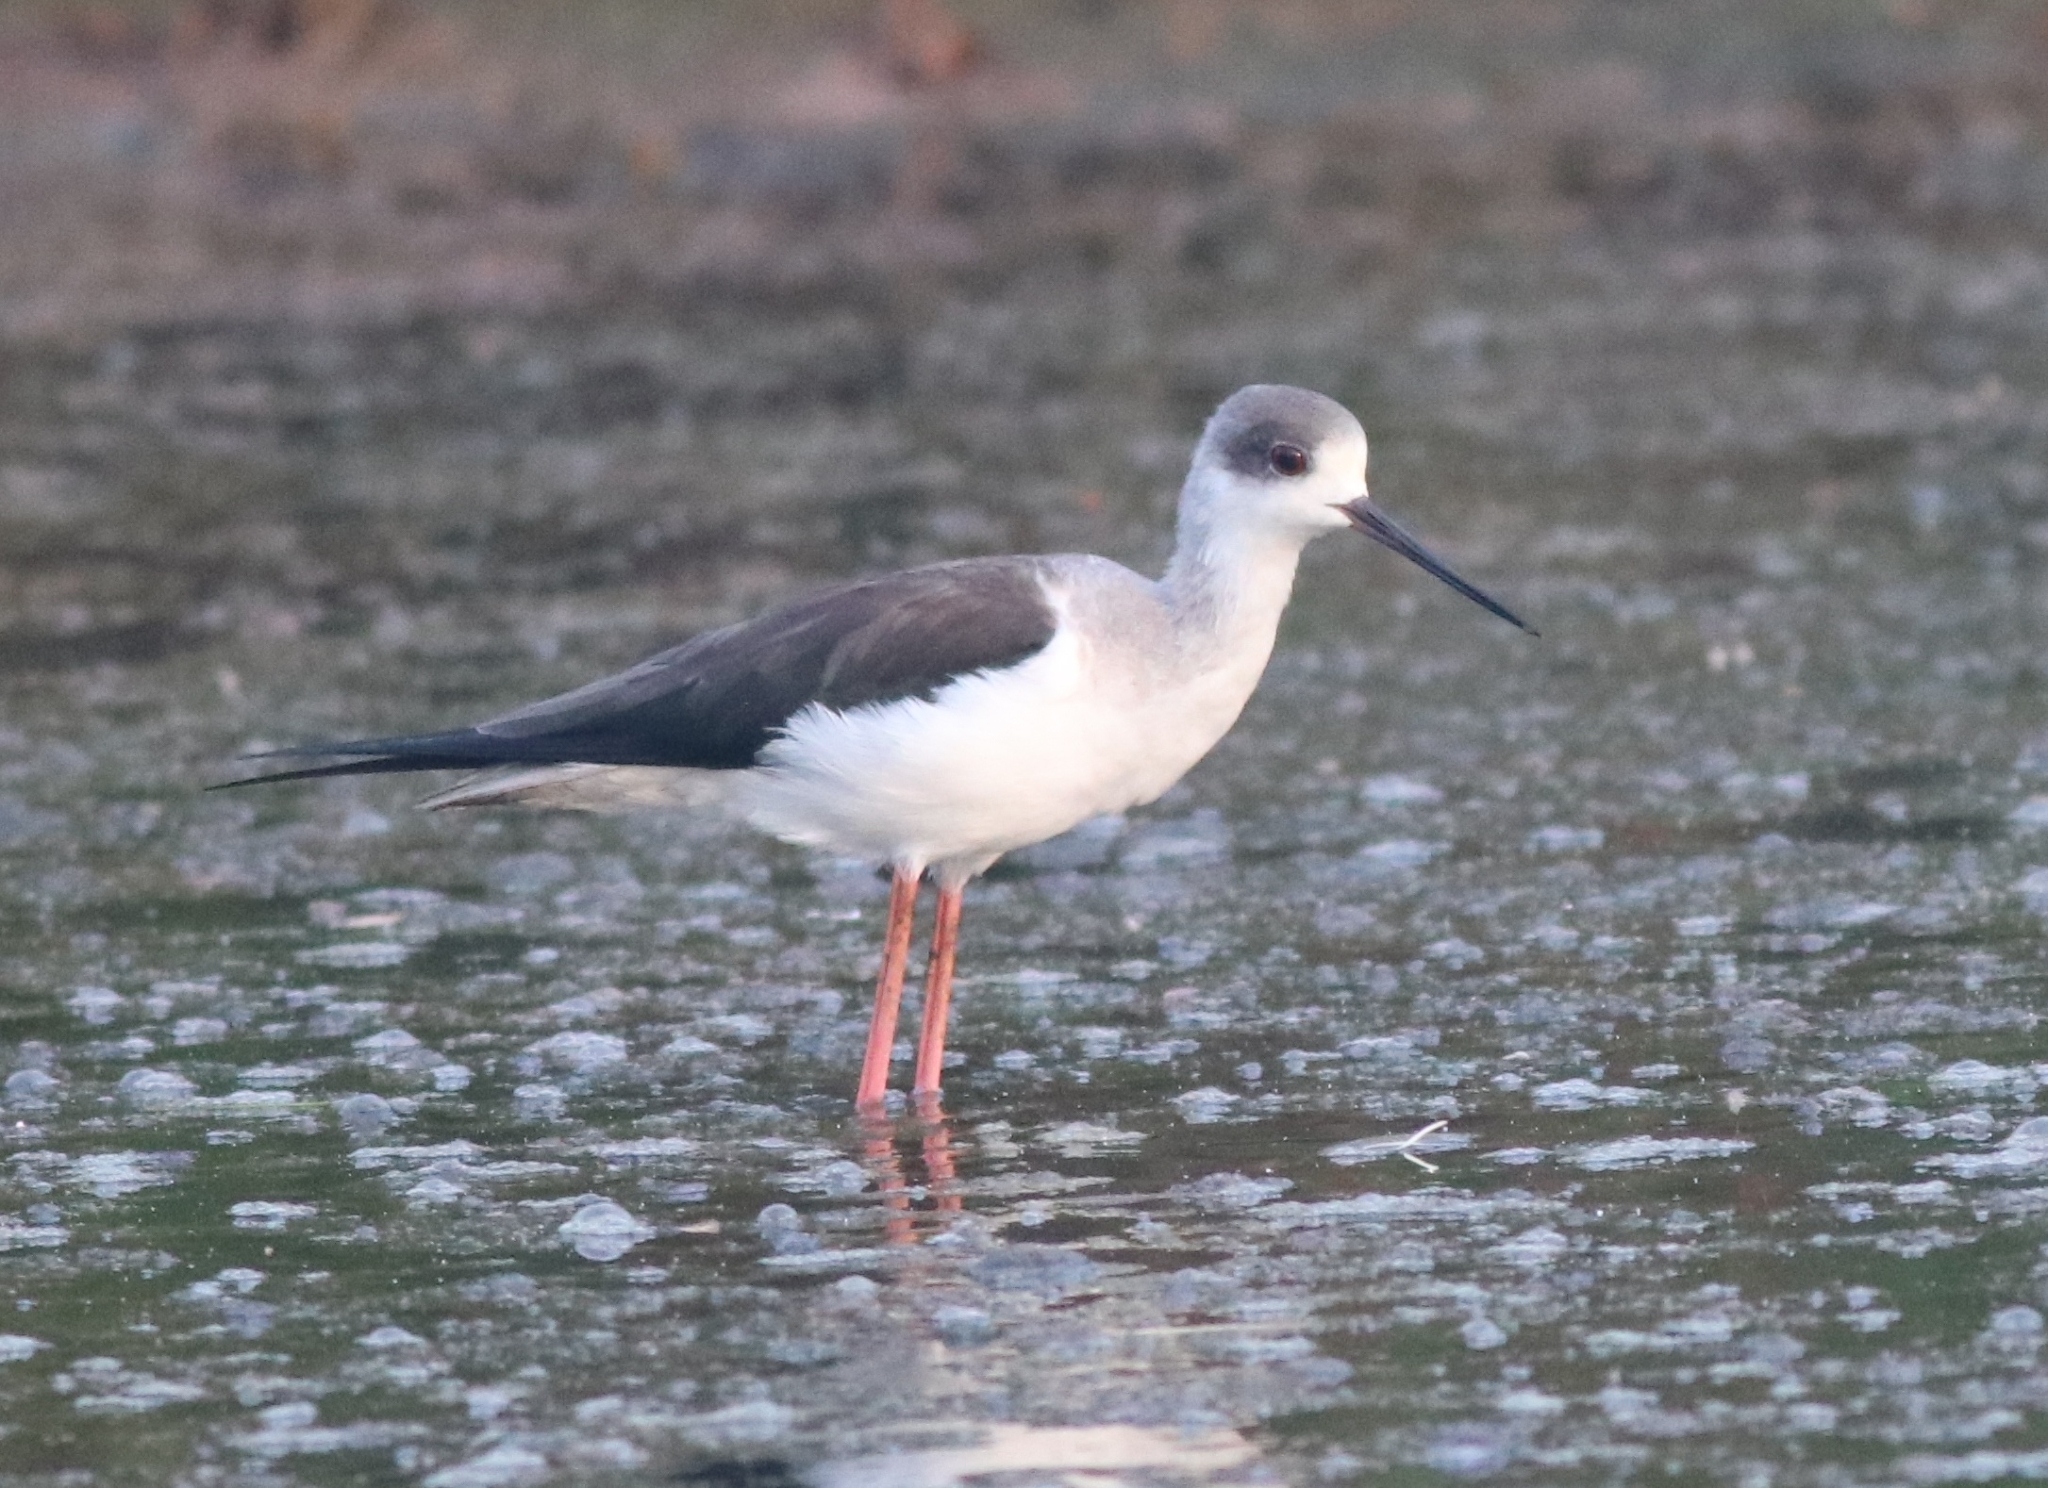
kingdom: Animalia
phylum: Chordata
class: Aves
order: Charadriiformes
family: Recurvirostridae
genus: Himantopus
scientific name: Himantopus himantopus
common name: Black-winged stilt
